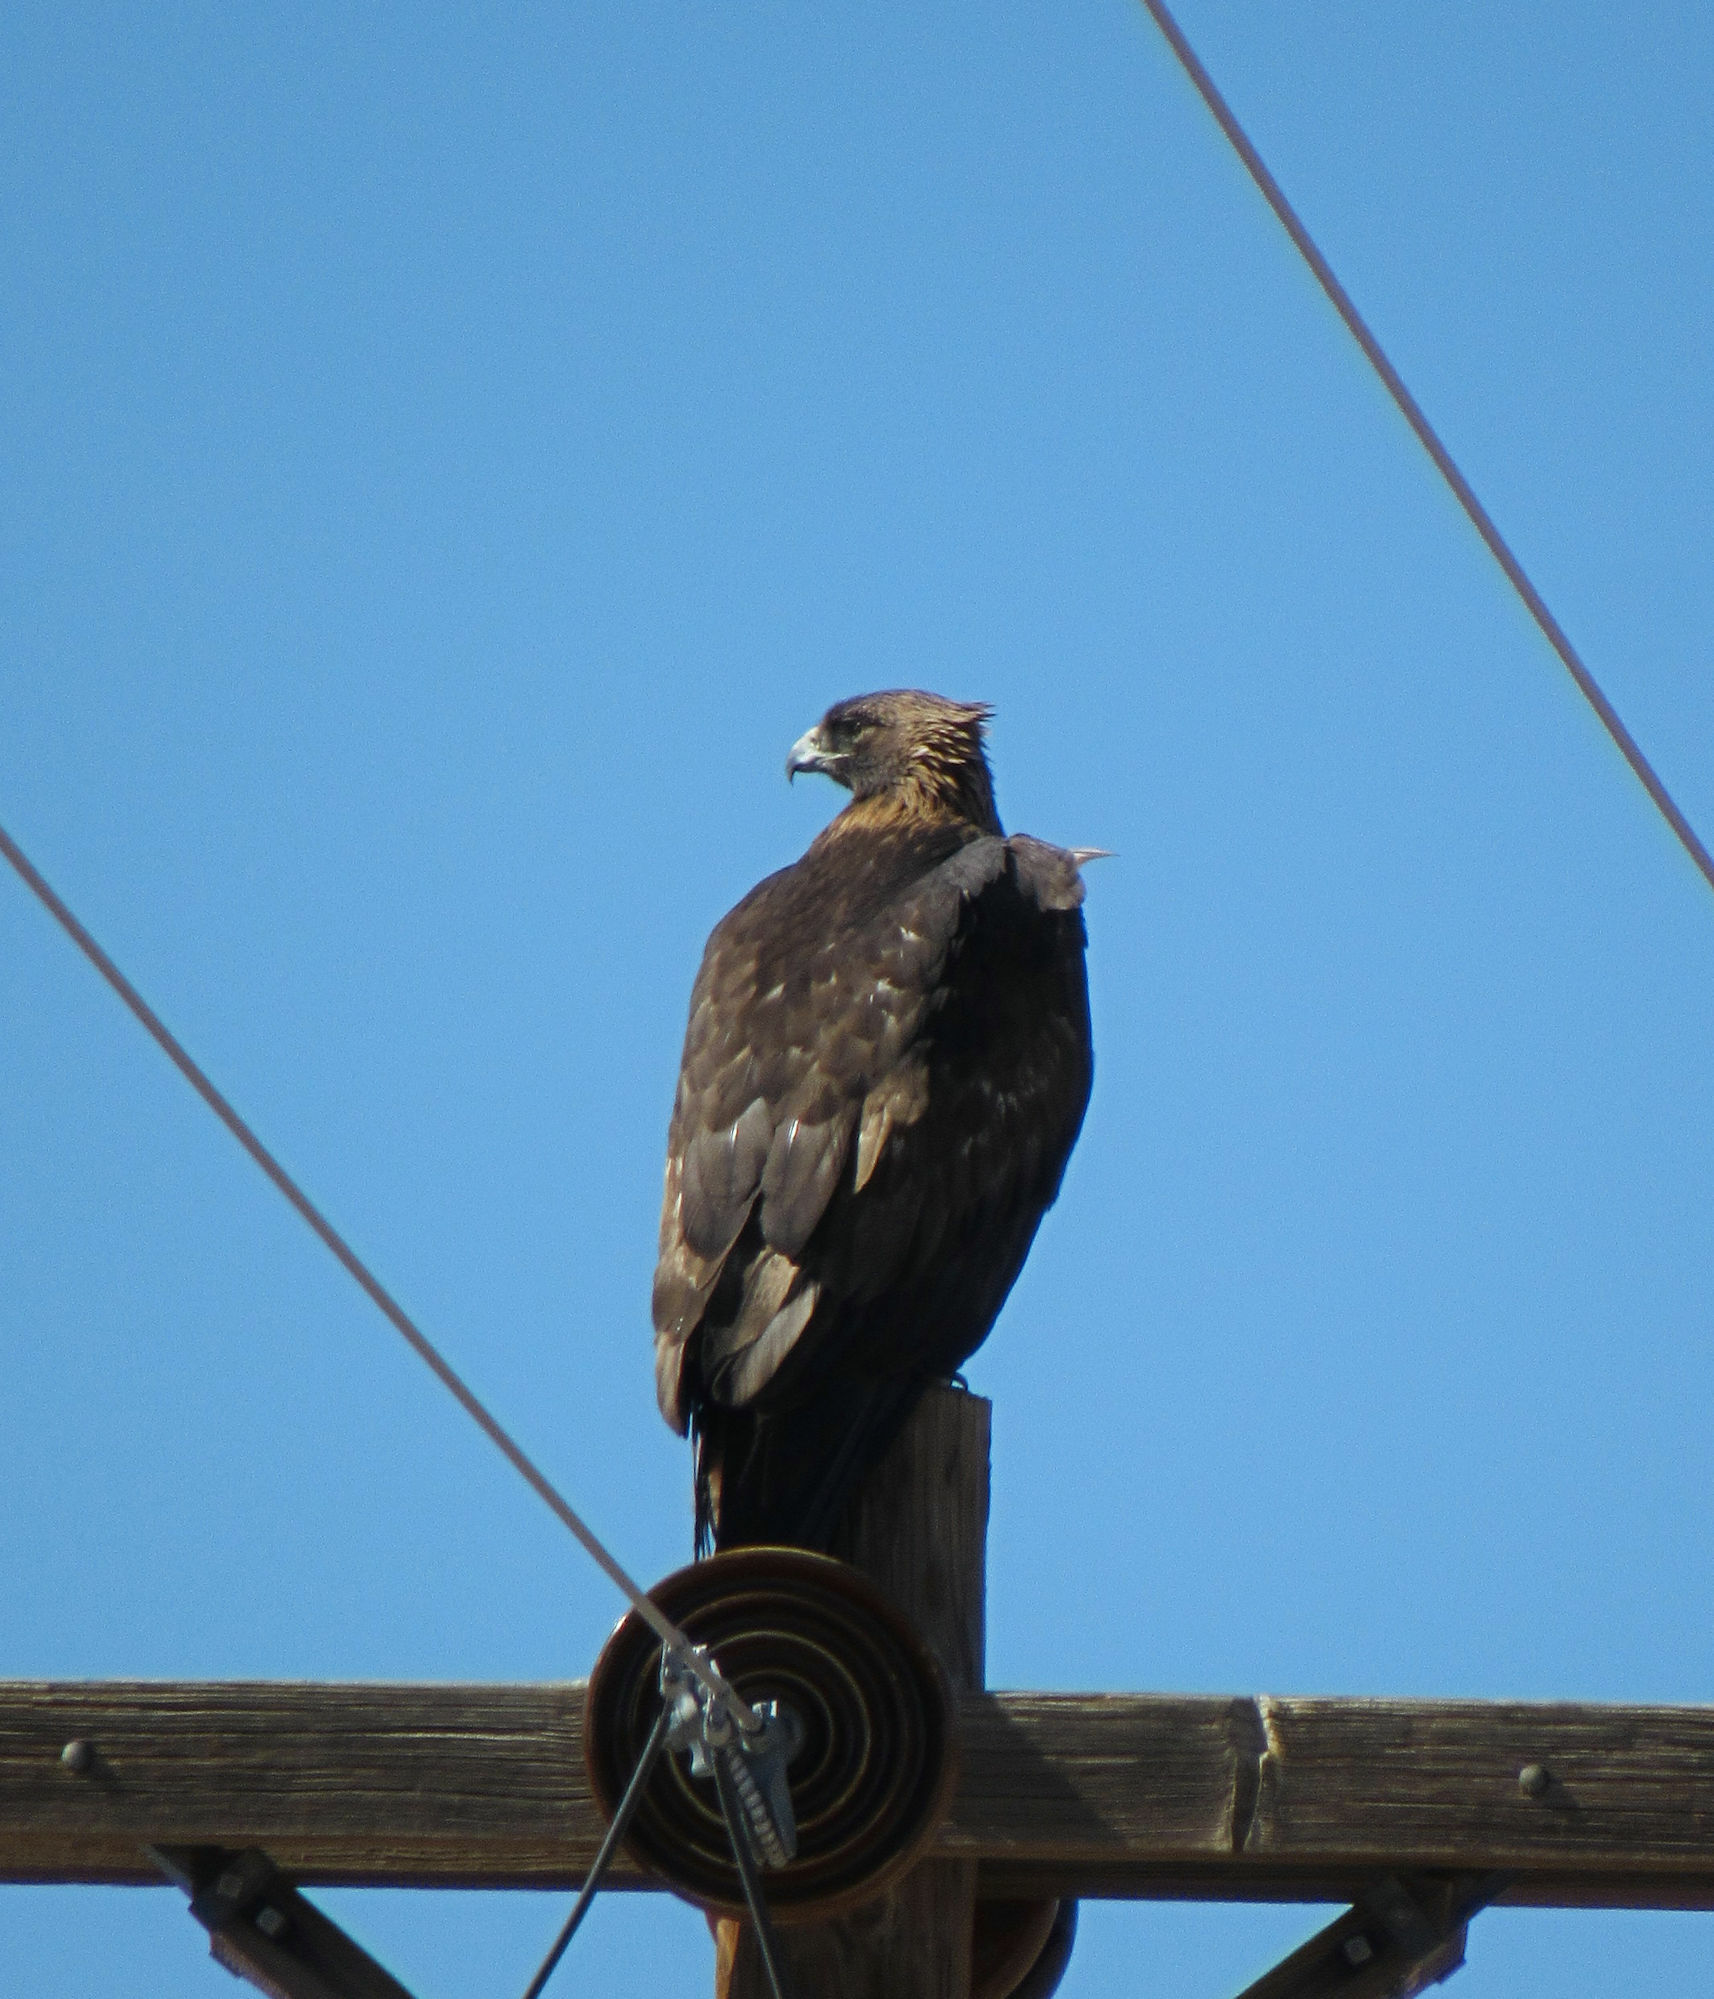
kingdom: Animalia
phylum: Chordata
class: Aves
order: Accipitriformes
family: Accipitridae
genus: Aquila
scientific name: Aquila chrysaetos
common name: Golden eagle
